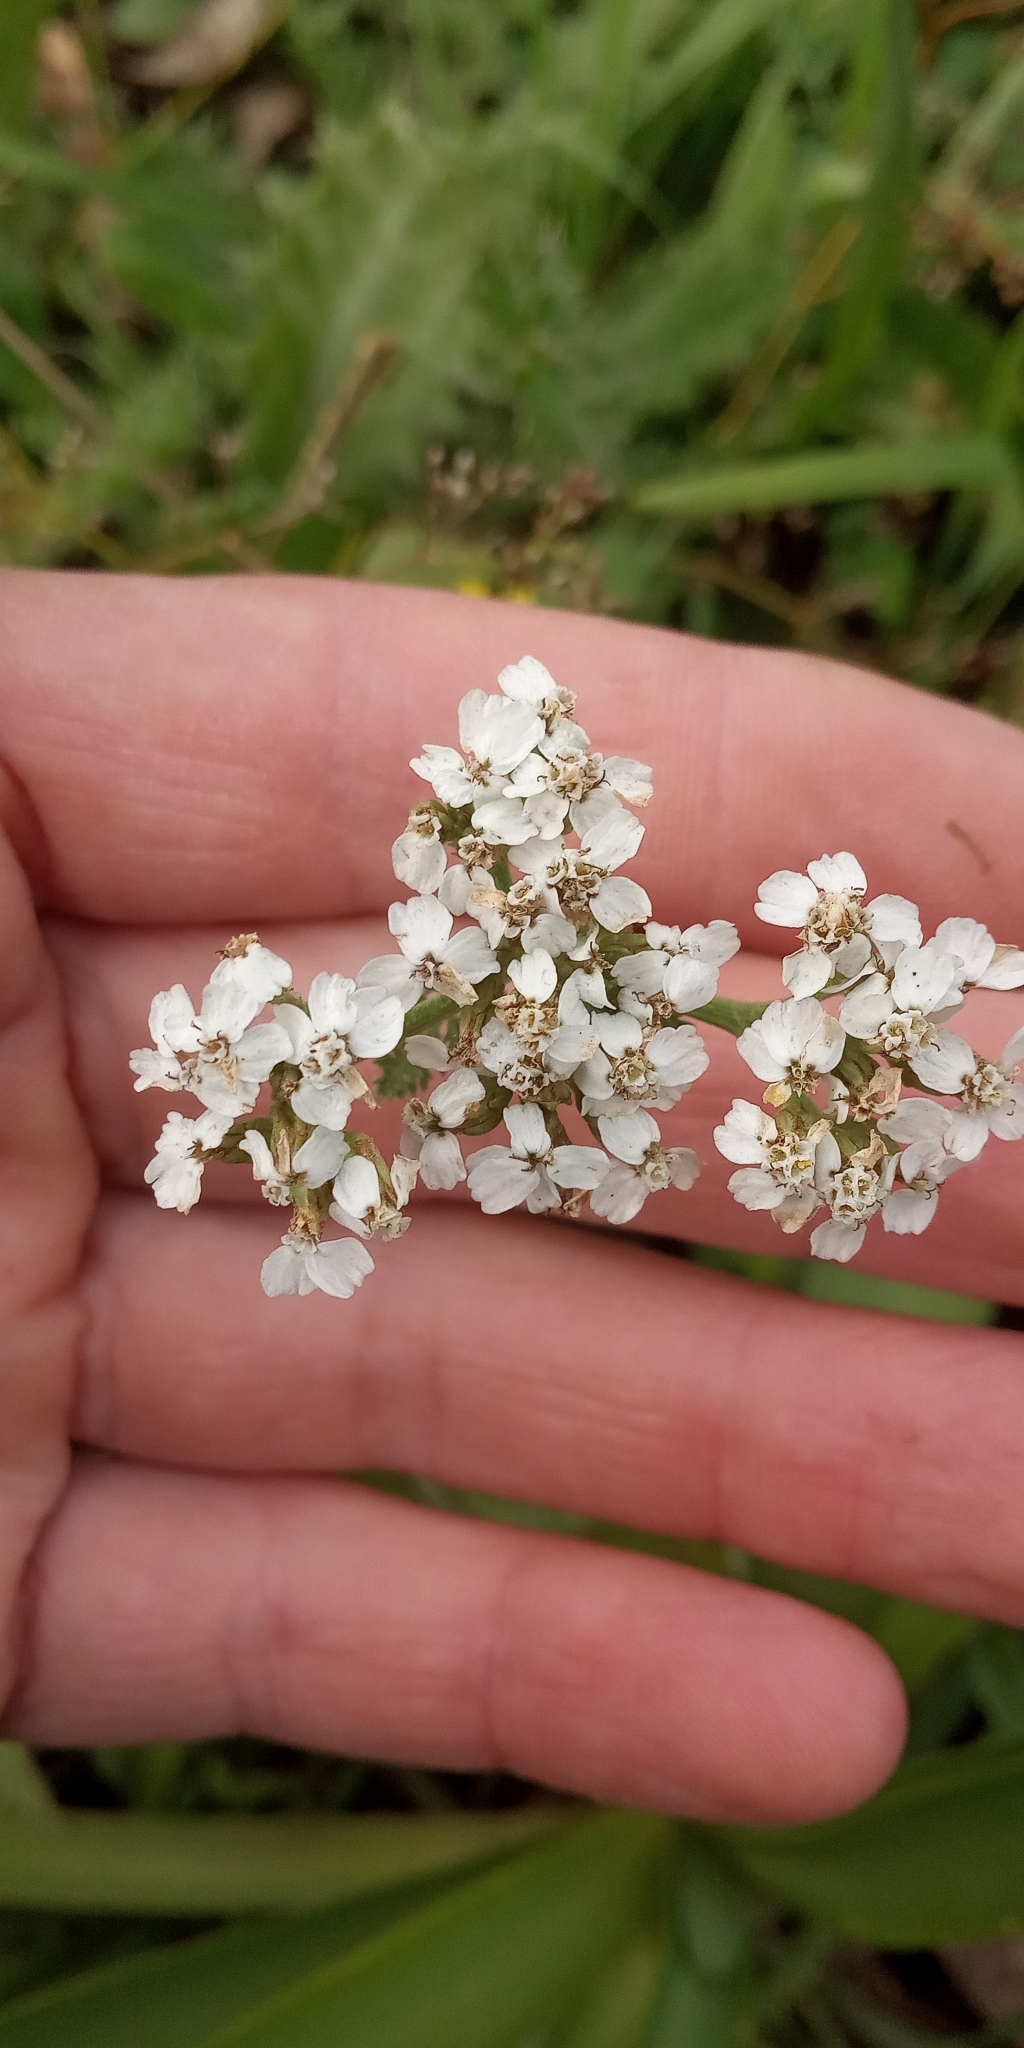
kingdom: Plantae
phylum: Tracheophyta
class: Magnoliopsida
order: Asterales
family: Asteraceae
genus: Achillea
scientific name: Achillea millefolium
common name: Yarrow
